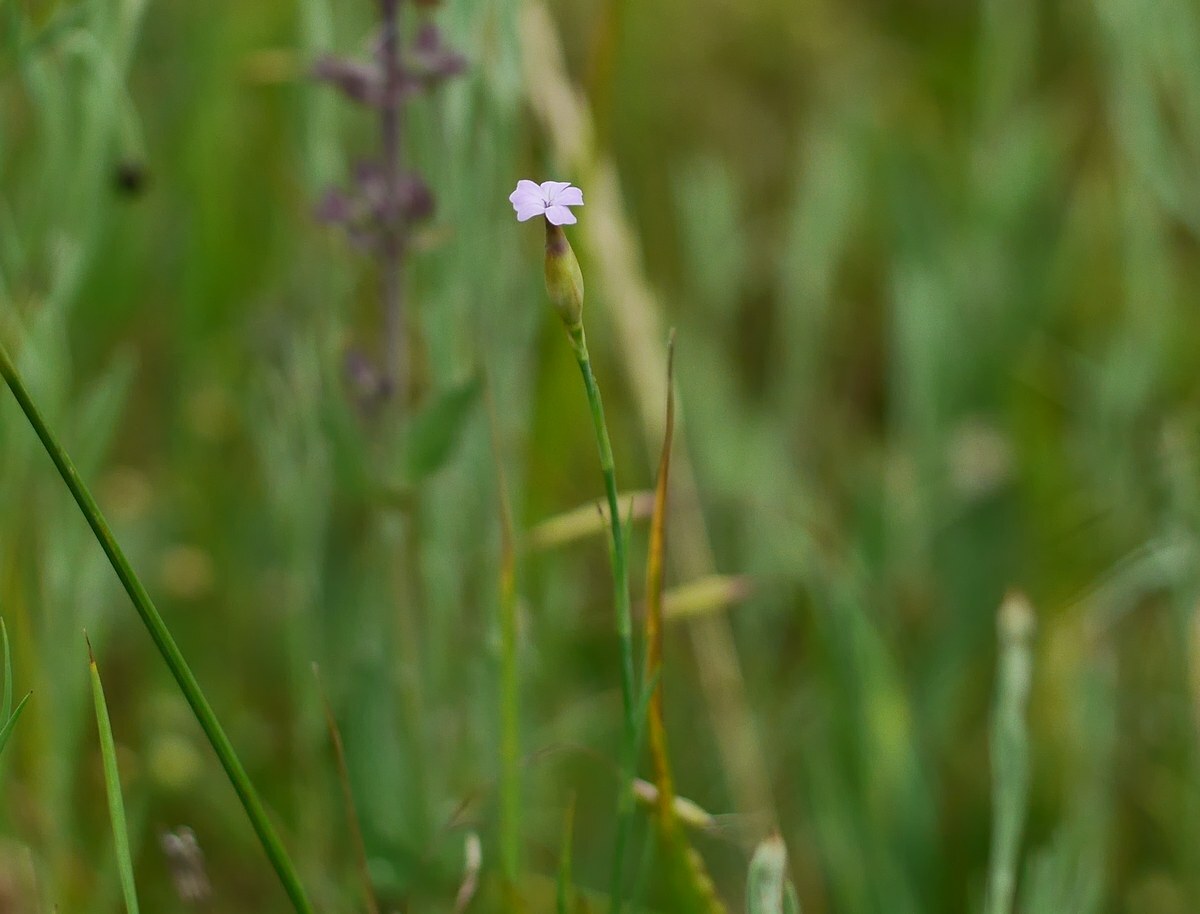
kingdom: Plantae
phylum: Tracheophyta
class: Magnoliopsida
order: Caryophyllales
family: Caryophyllaceae
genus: Petrorhagia
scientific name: Petrorhagia prolifera
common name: Proliferous pink
